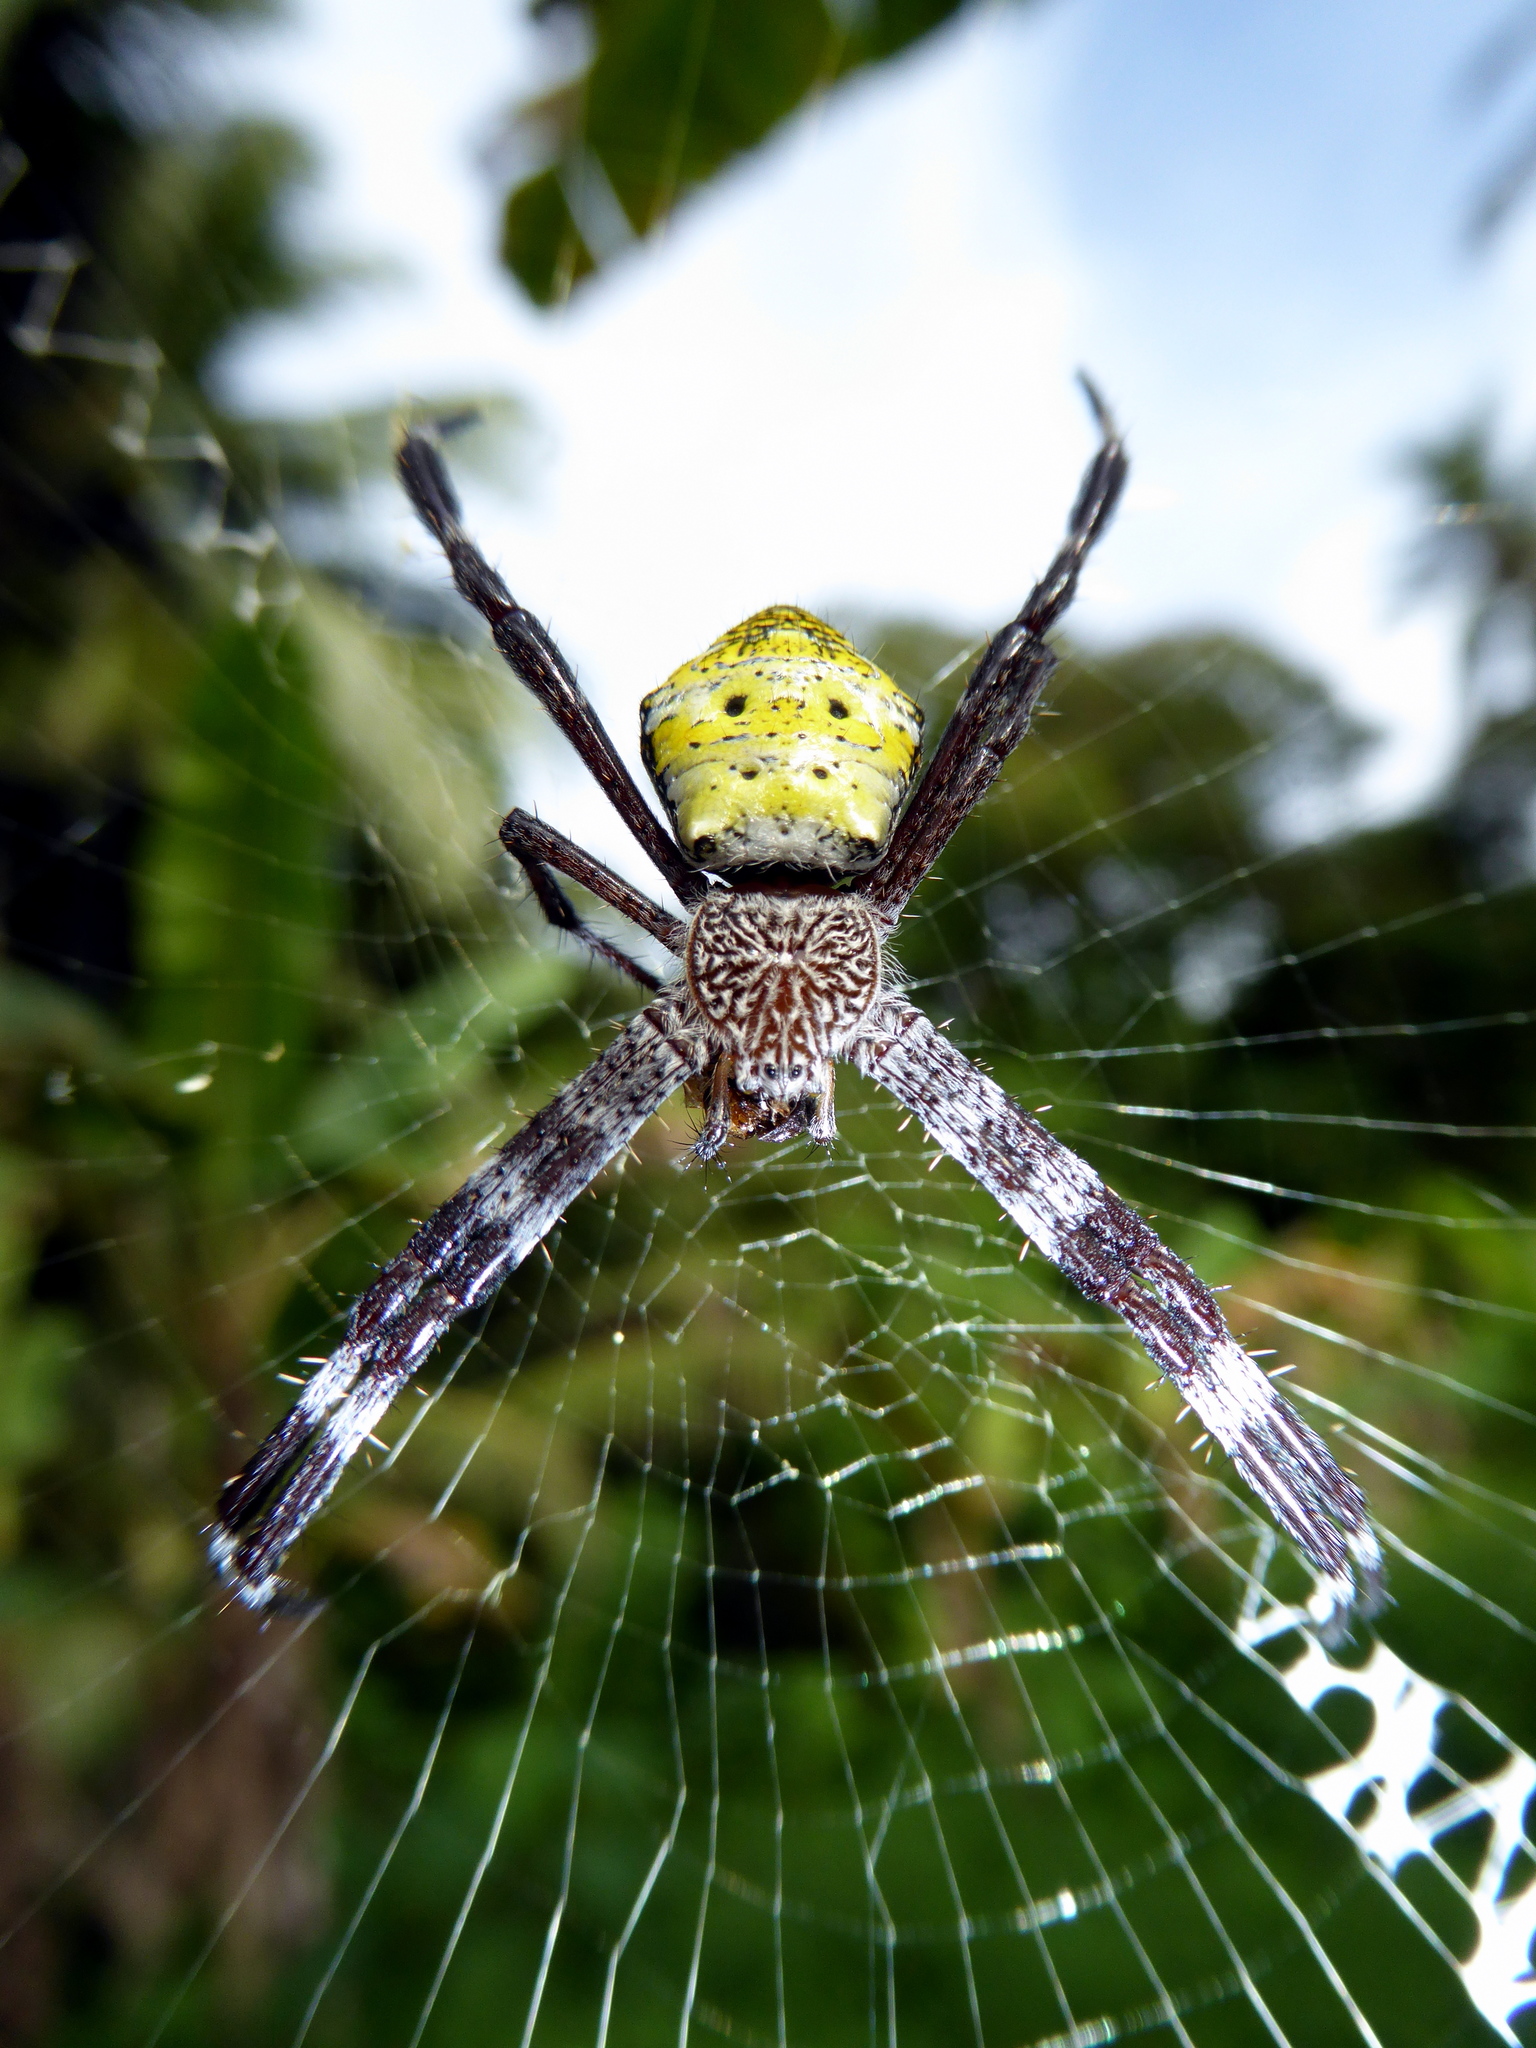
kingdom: Animalia
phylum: Arthropoda
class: Arachnida
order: Araneae
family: Araneidae
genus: Argiope
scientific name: Argiope appensa
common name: Garden spider
